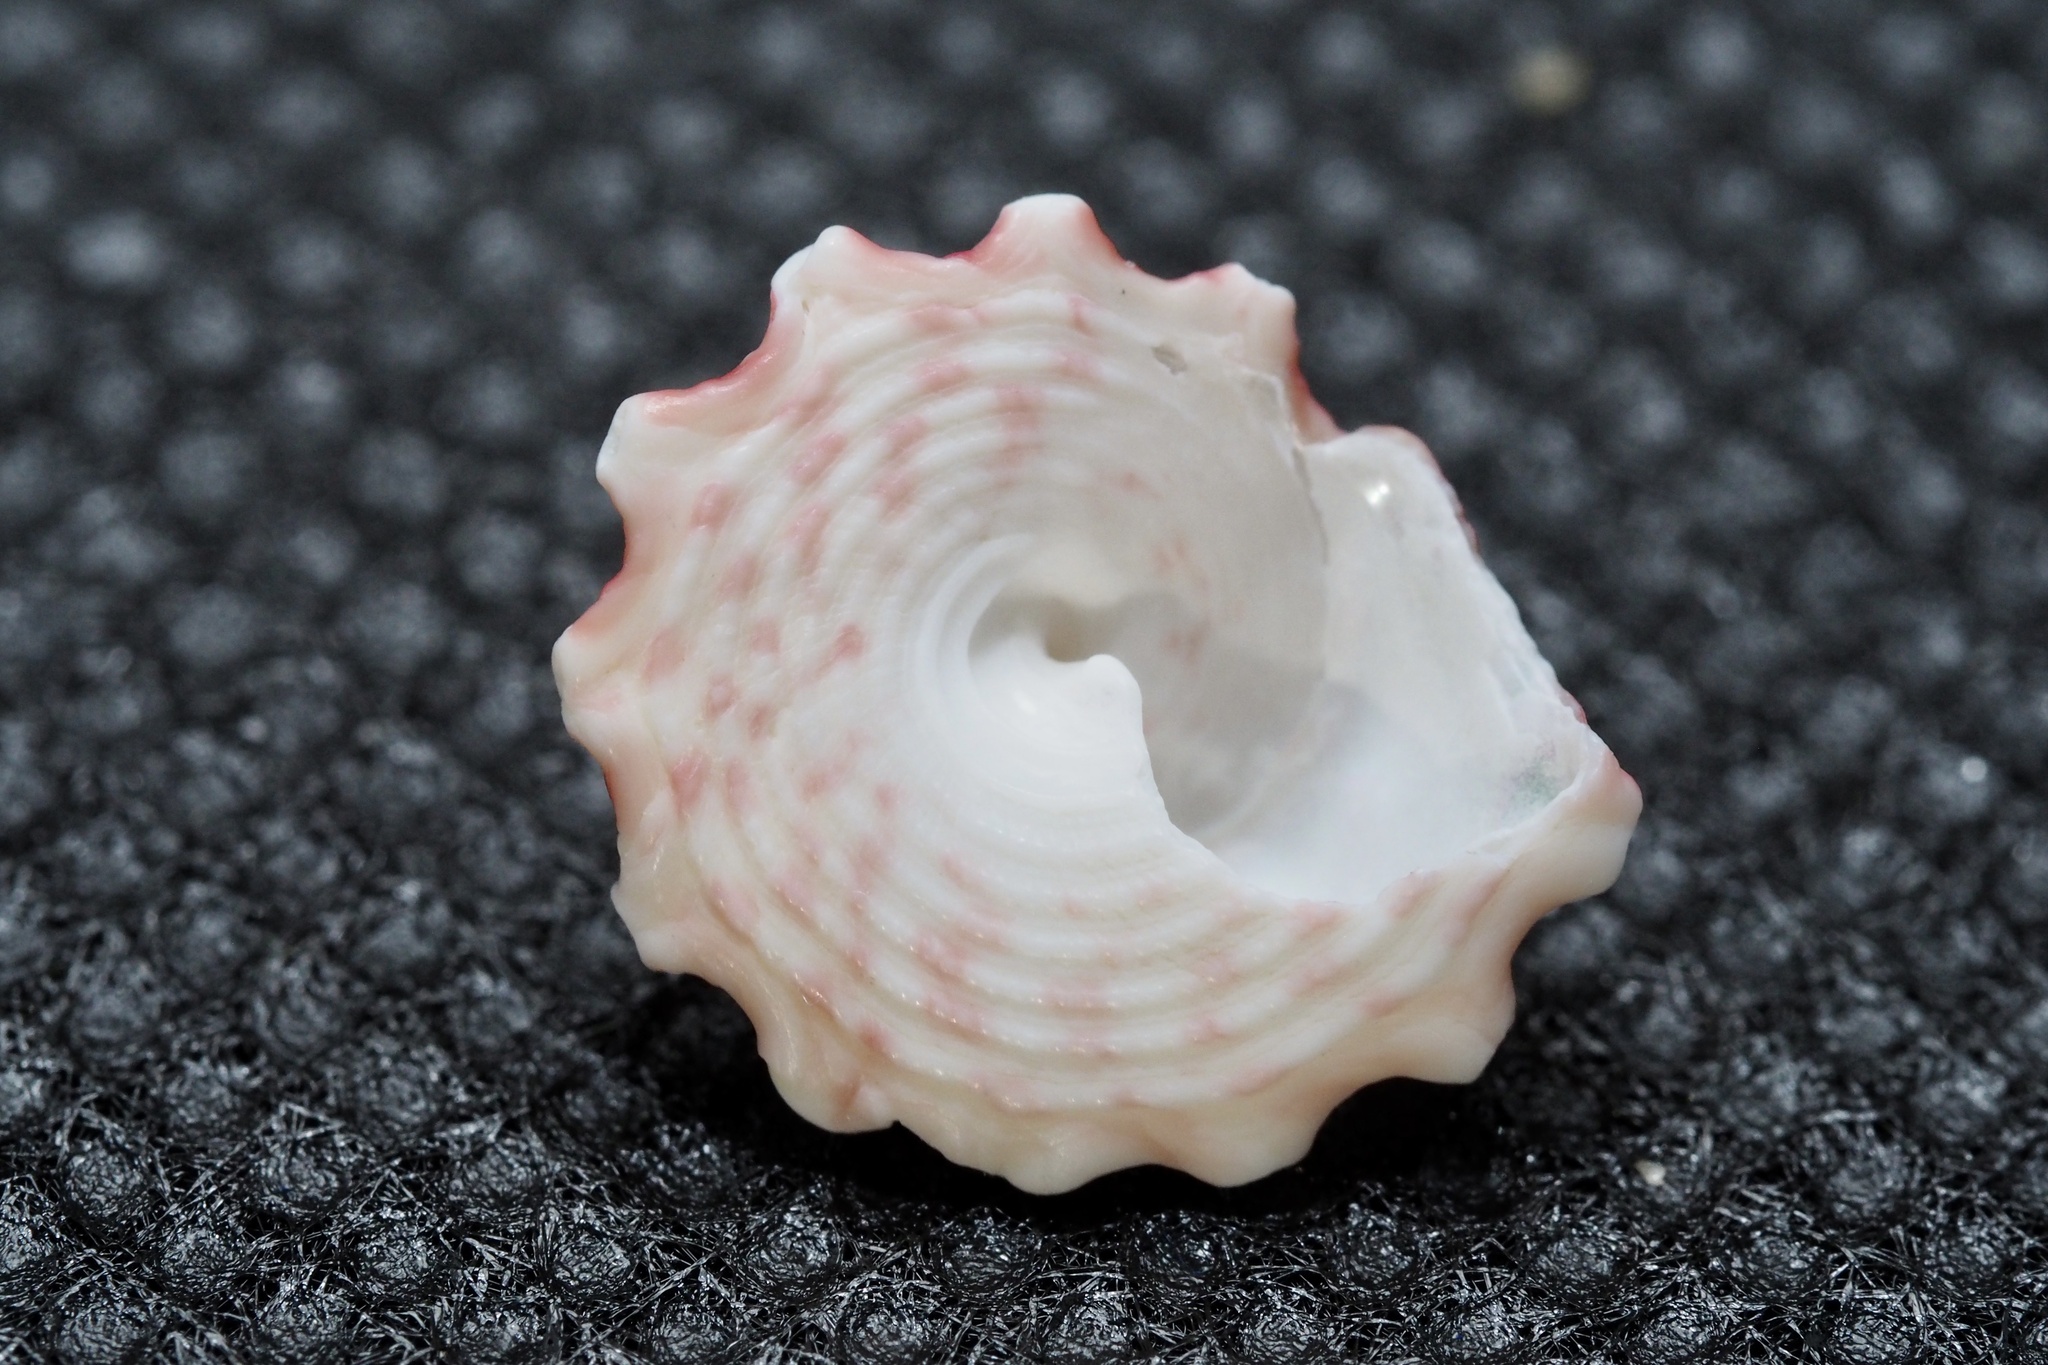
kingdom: Animalia
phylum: Mollusca
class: Gastropoda
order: Trochida
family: Trochidae
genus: Trochus
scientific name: Trochus rota
